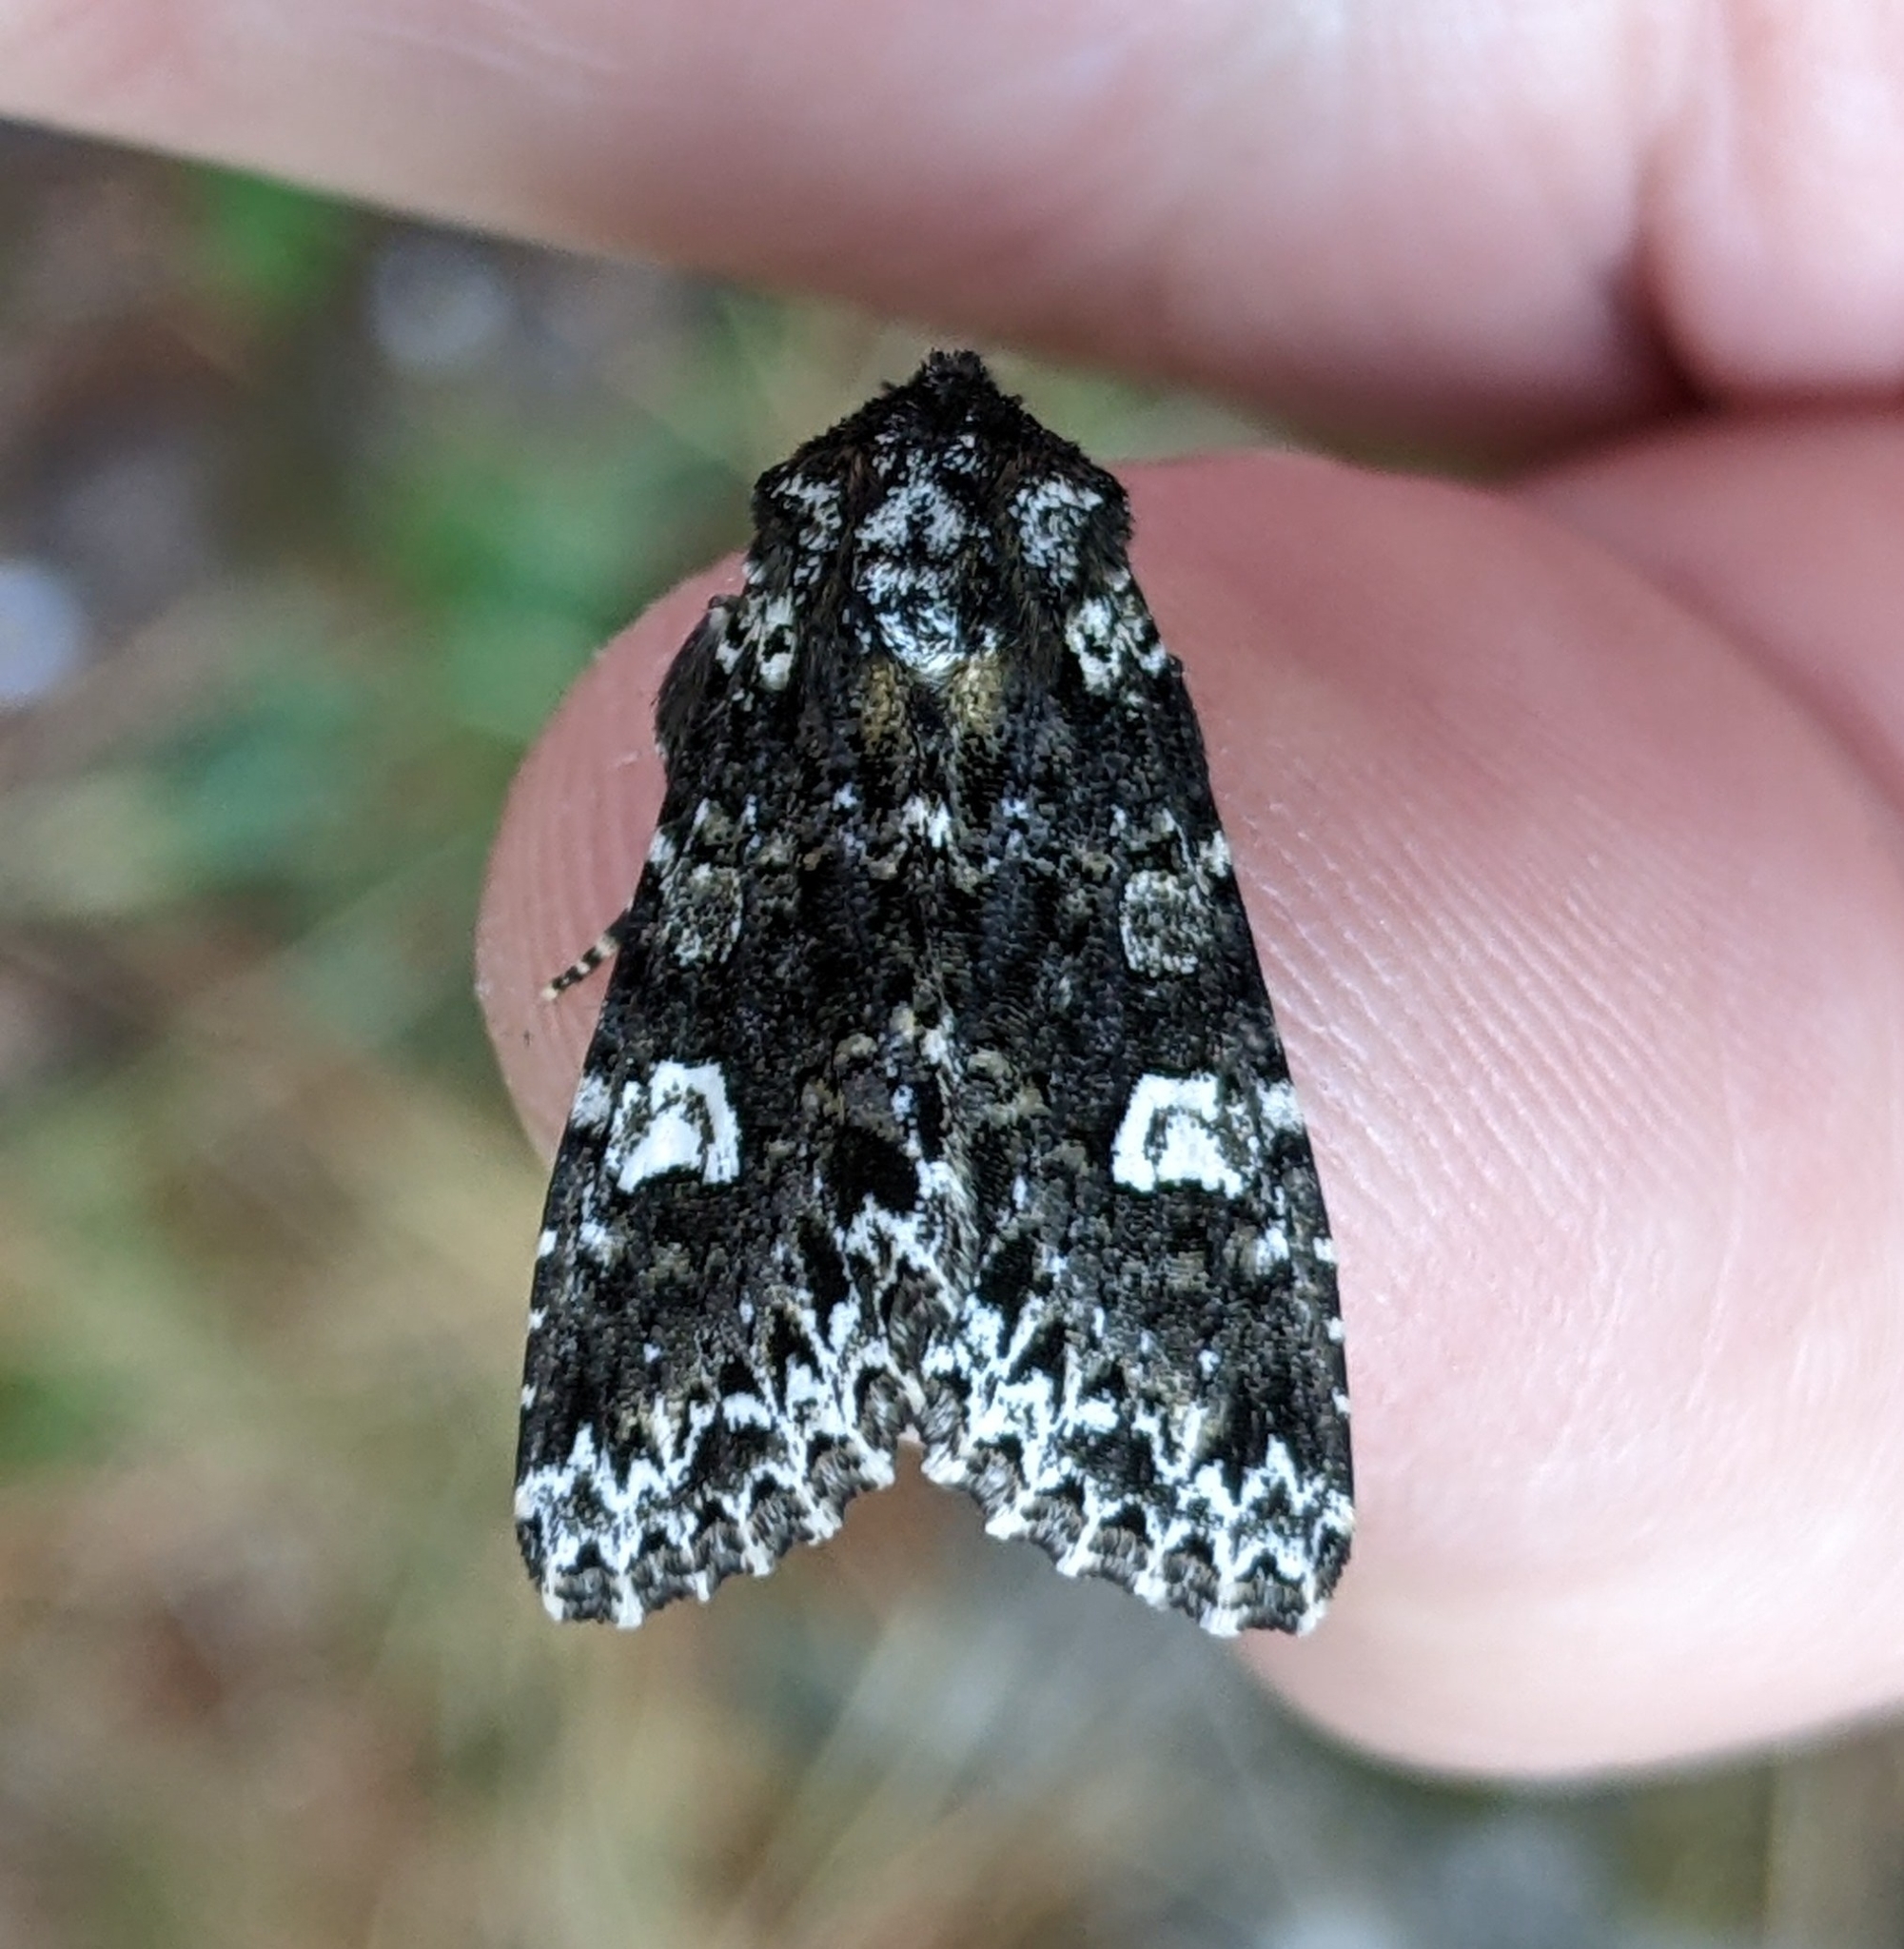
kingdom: Animalia
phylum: Arthropoda
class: Insecta
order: Lepidoptera
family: Noctuidae
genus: Melanchra
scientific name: Melanchra adjuncta
